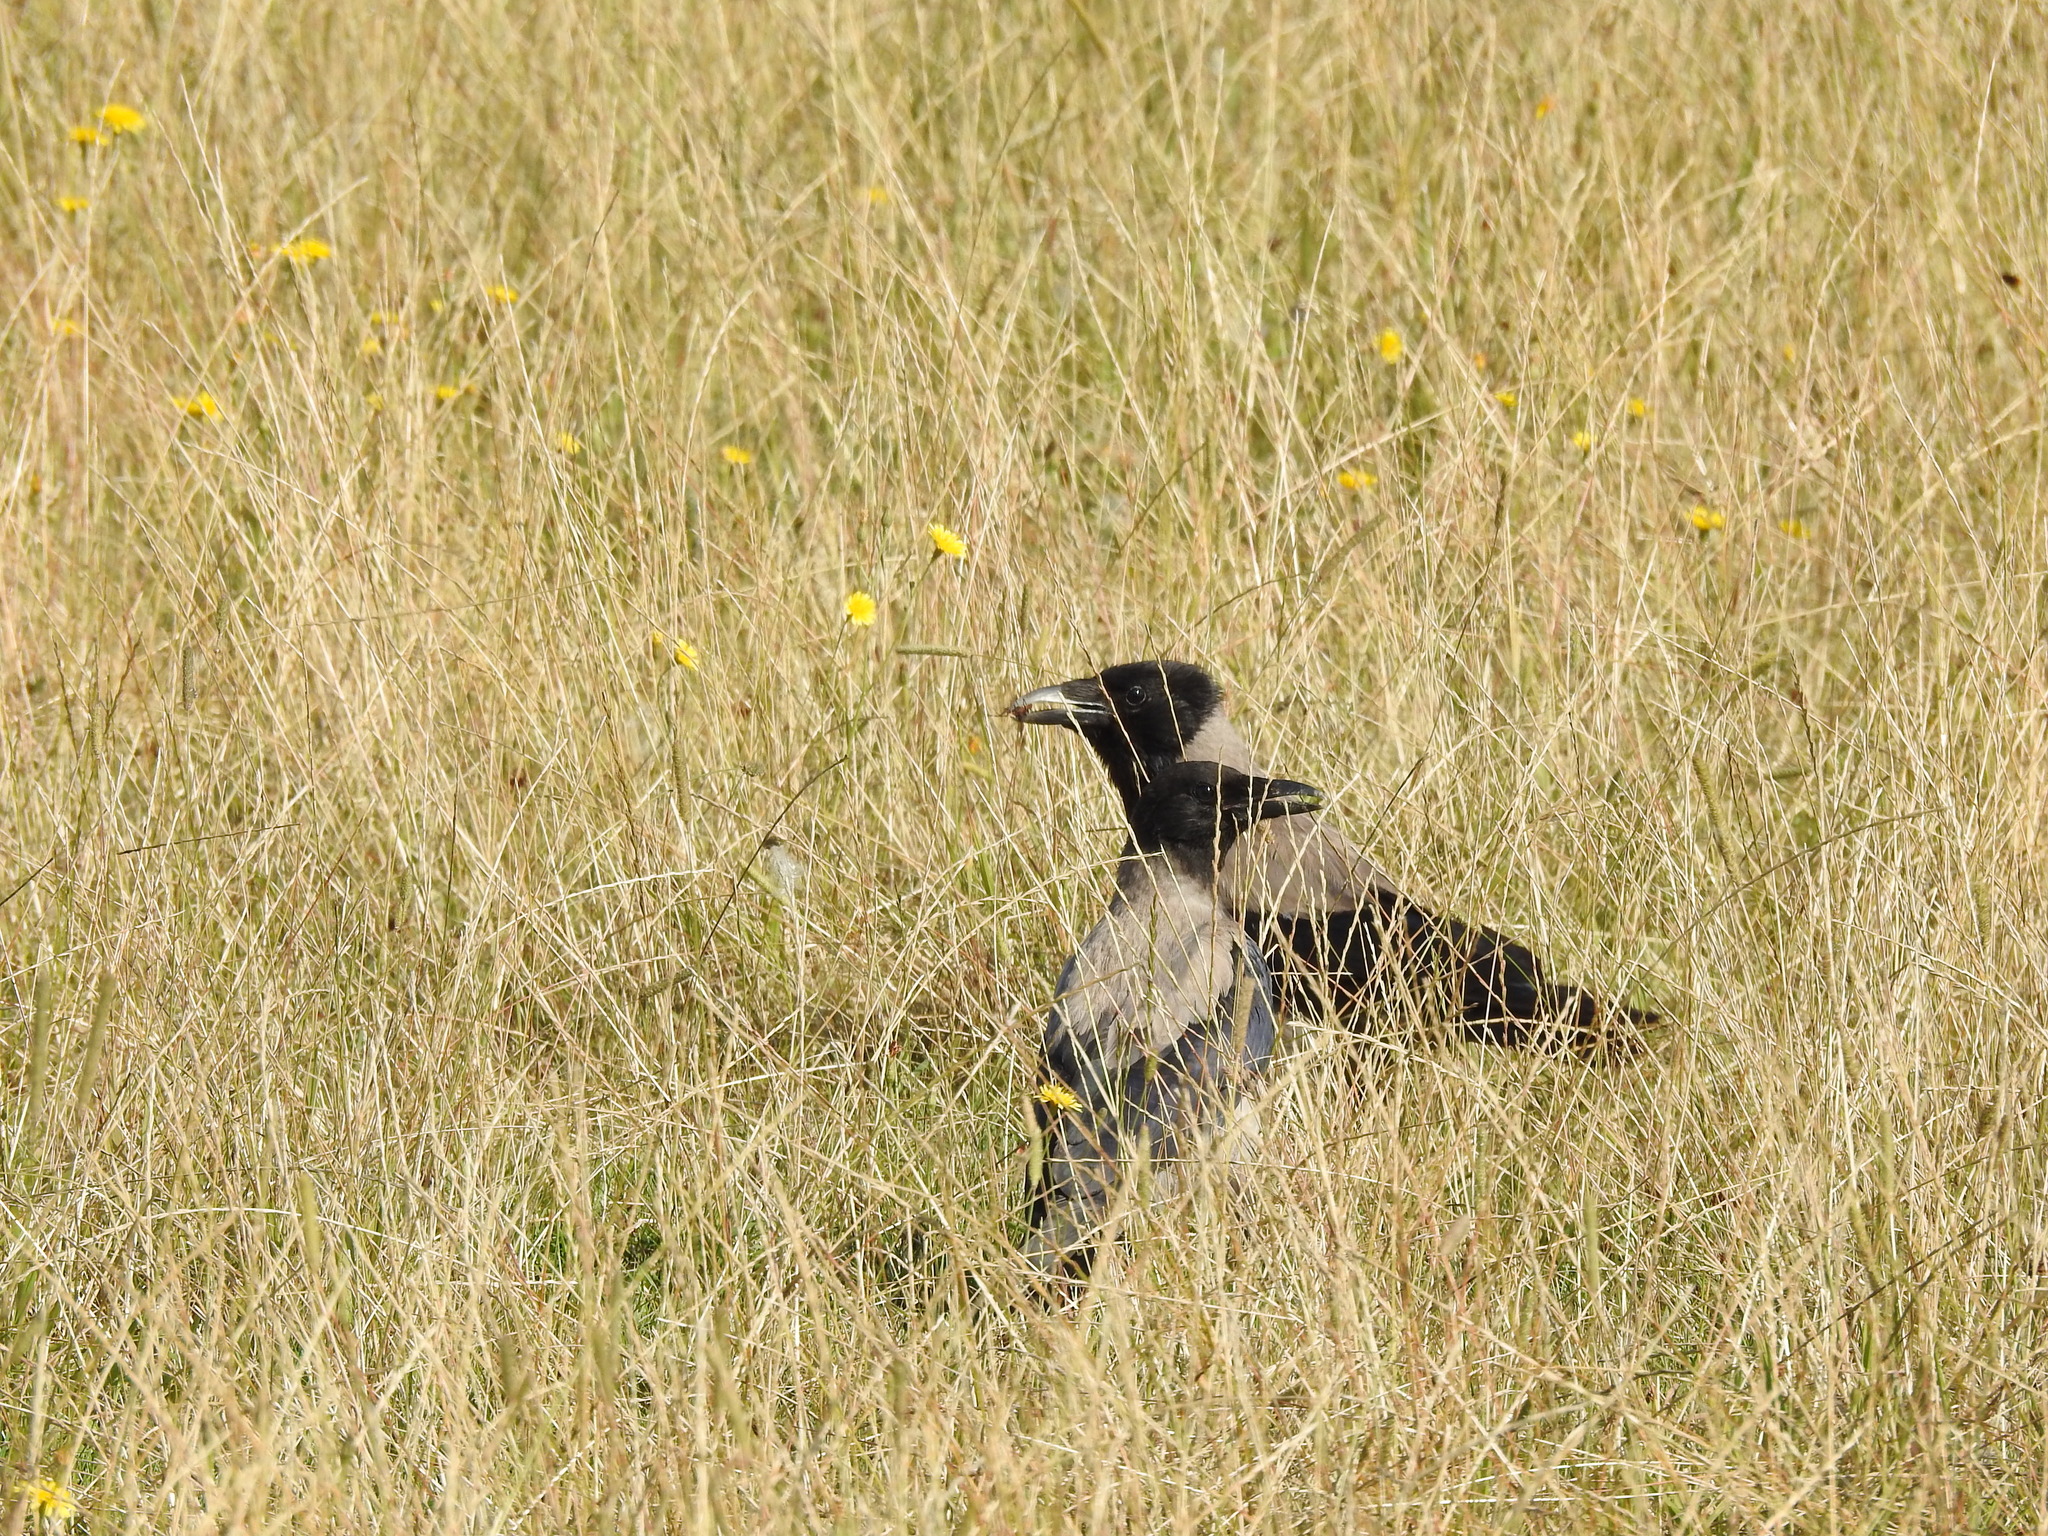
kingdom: Animalia
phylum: Chordata
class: Aves
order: Passeriformes
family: Corvidae
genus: Corvus
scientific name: Corvus cornix
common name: Hooded crow
